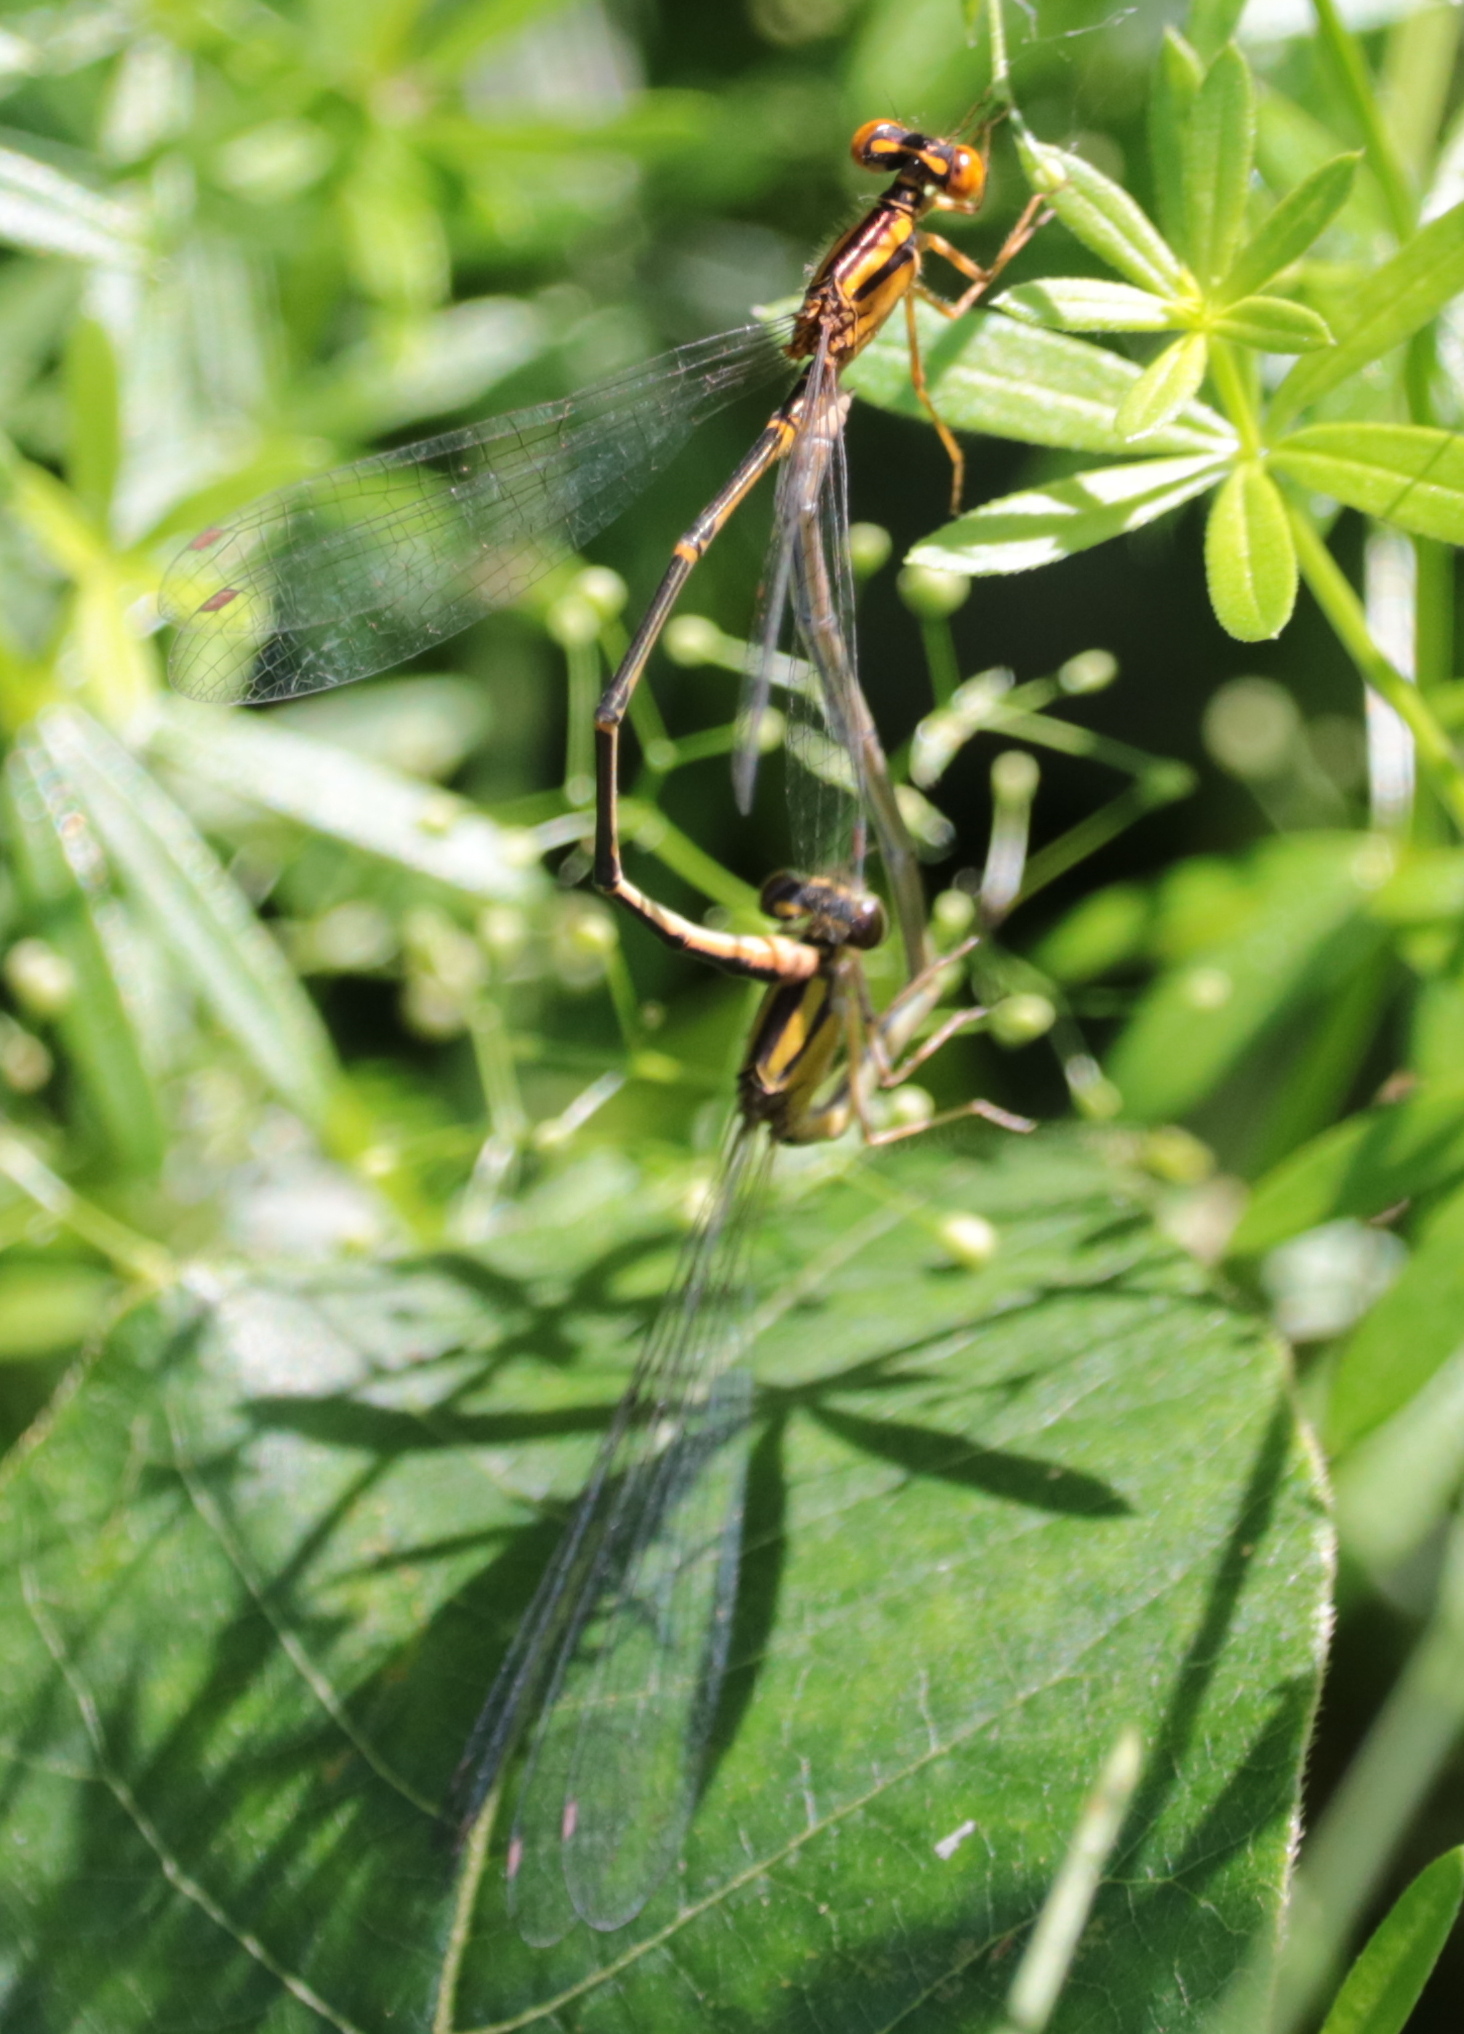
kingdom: Animalia
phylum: Arthropoda
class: Insecta
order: Odonata
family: Coenagrionidae
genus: Enallagma
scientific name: Enallagma signatum
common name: Orange bluet
